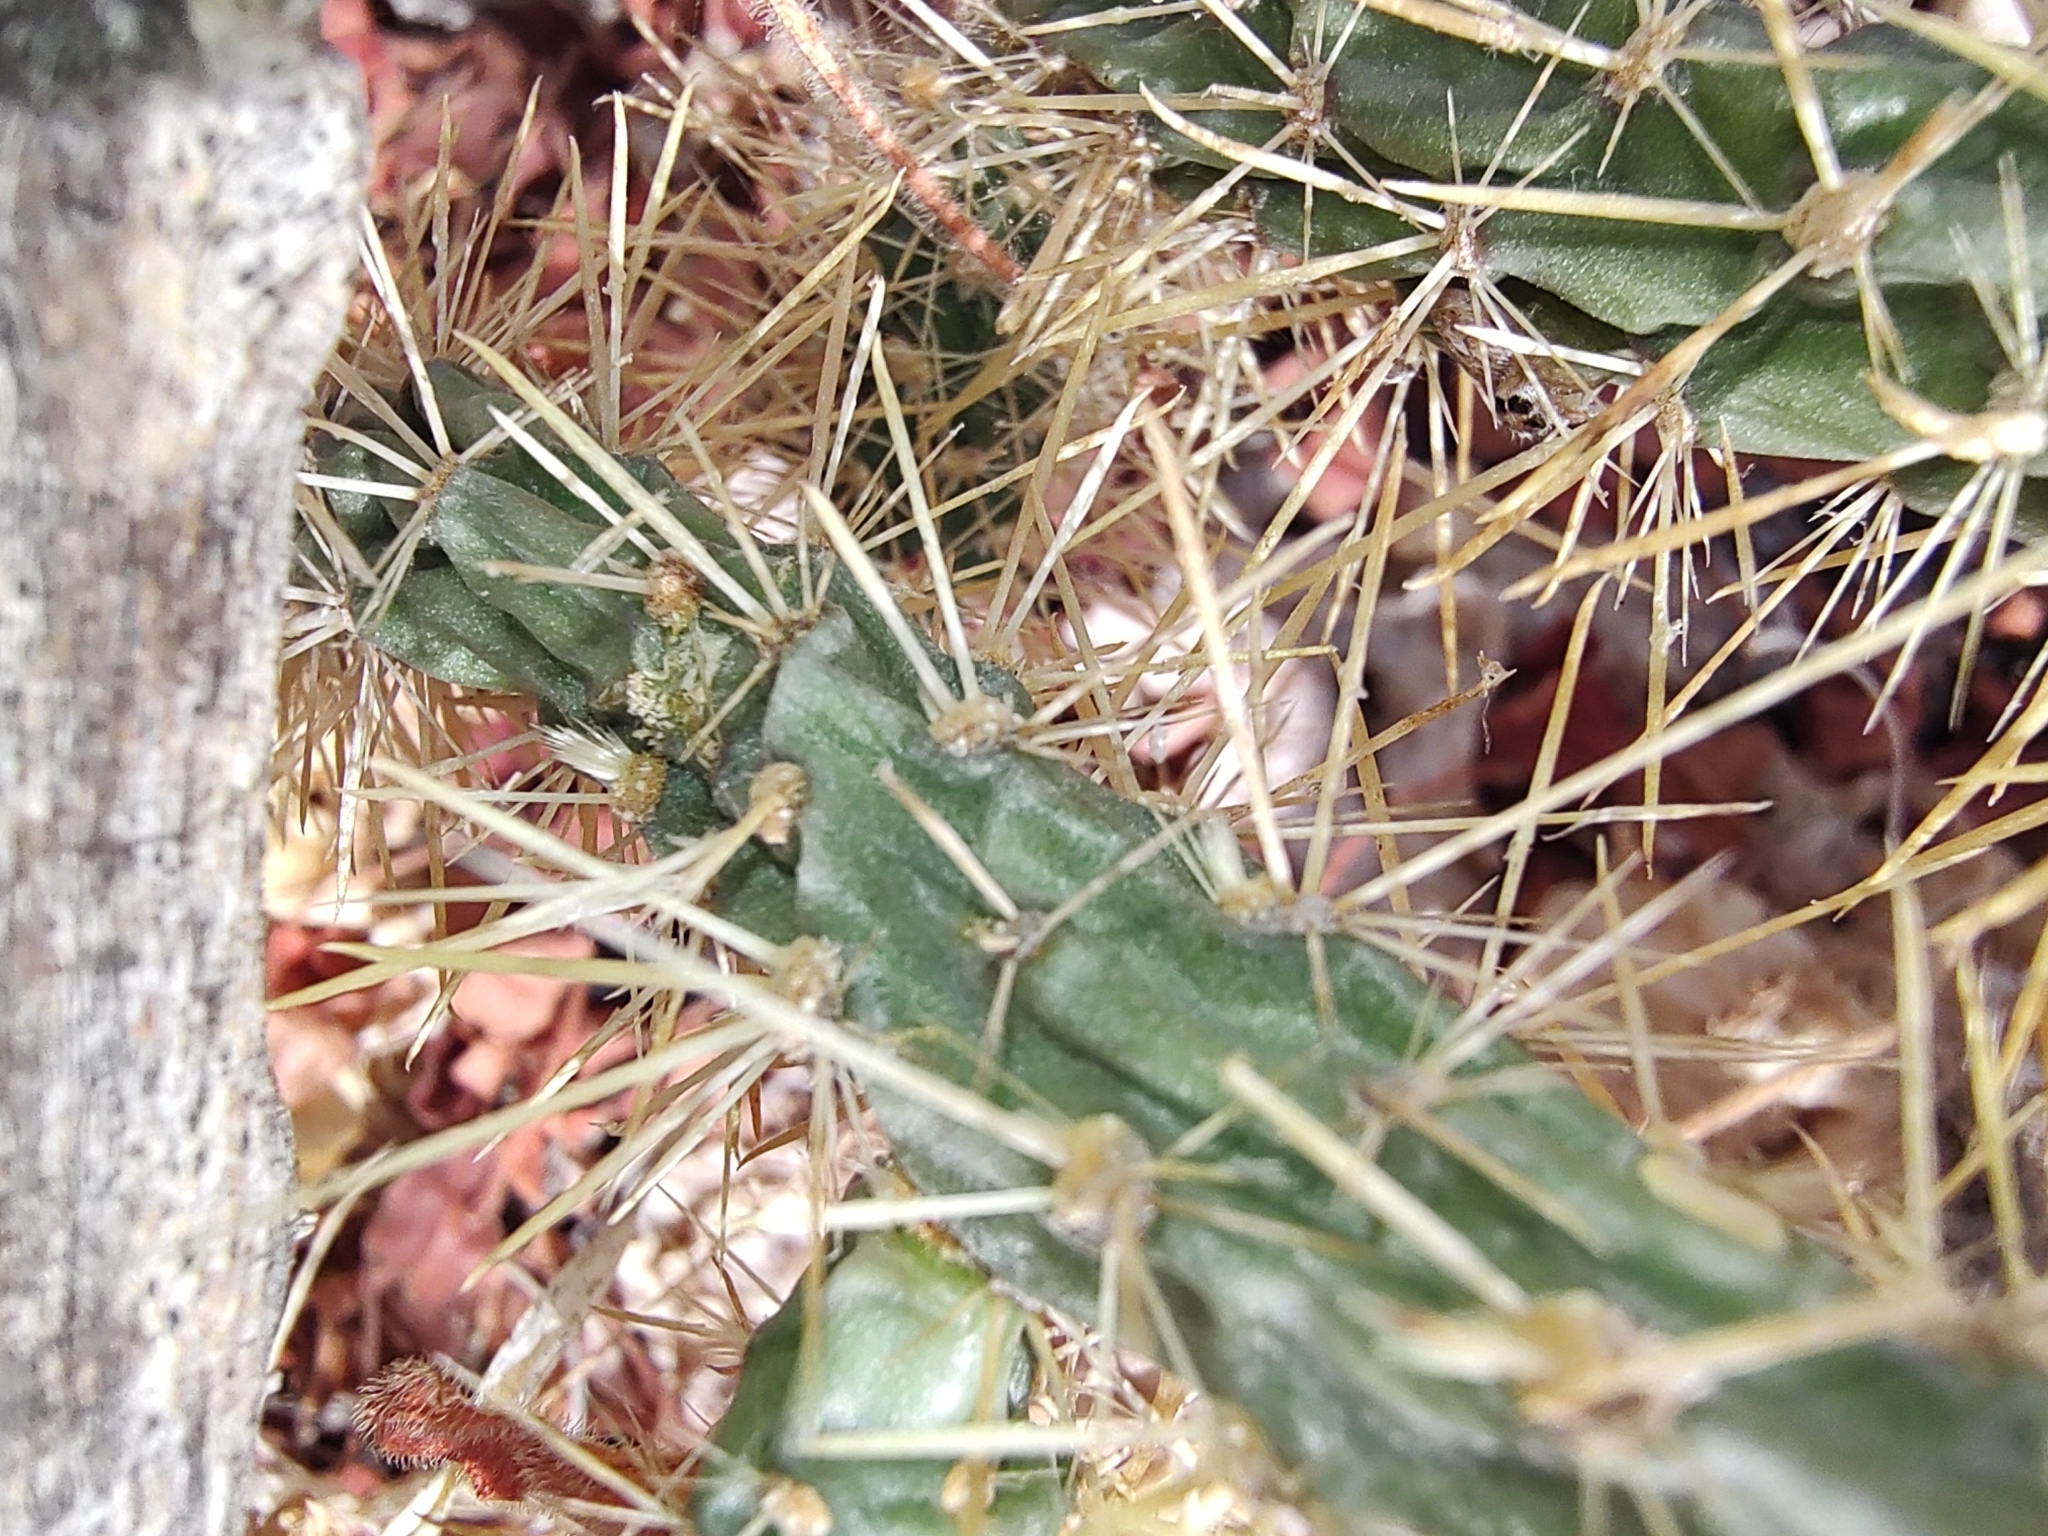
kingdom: Plantae
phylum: Tracheophyta
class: Magnoliopsida
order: Caryophyllales
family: Cactaceae
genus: Cylindropuntia
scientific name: Cylindropuntia alcahes
